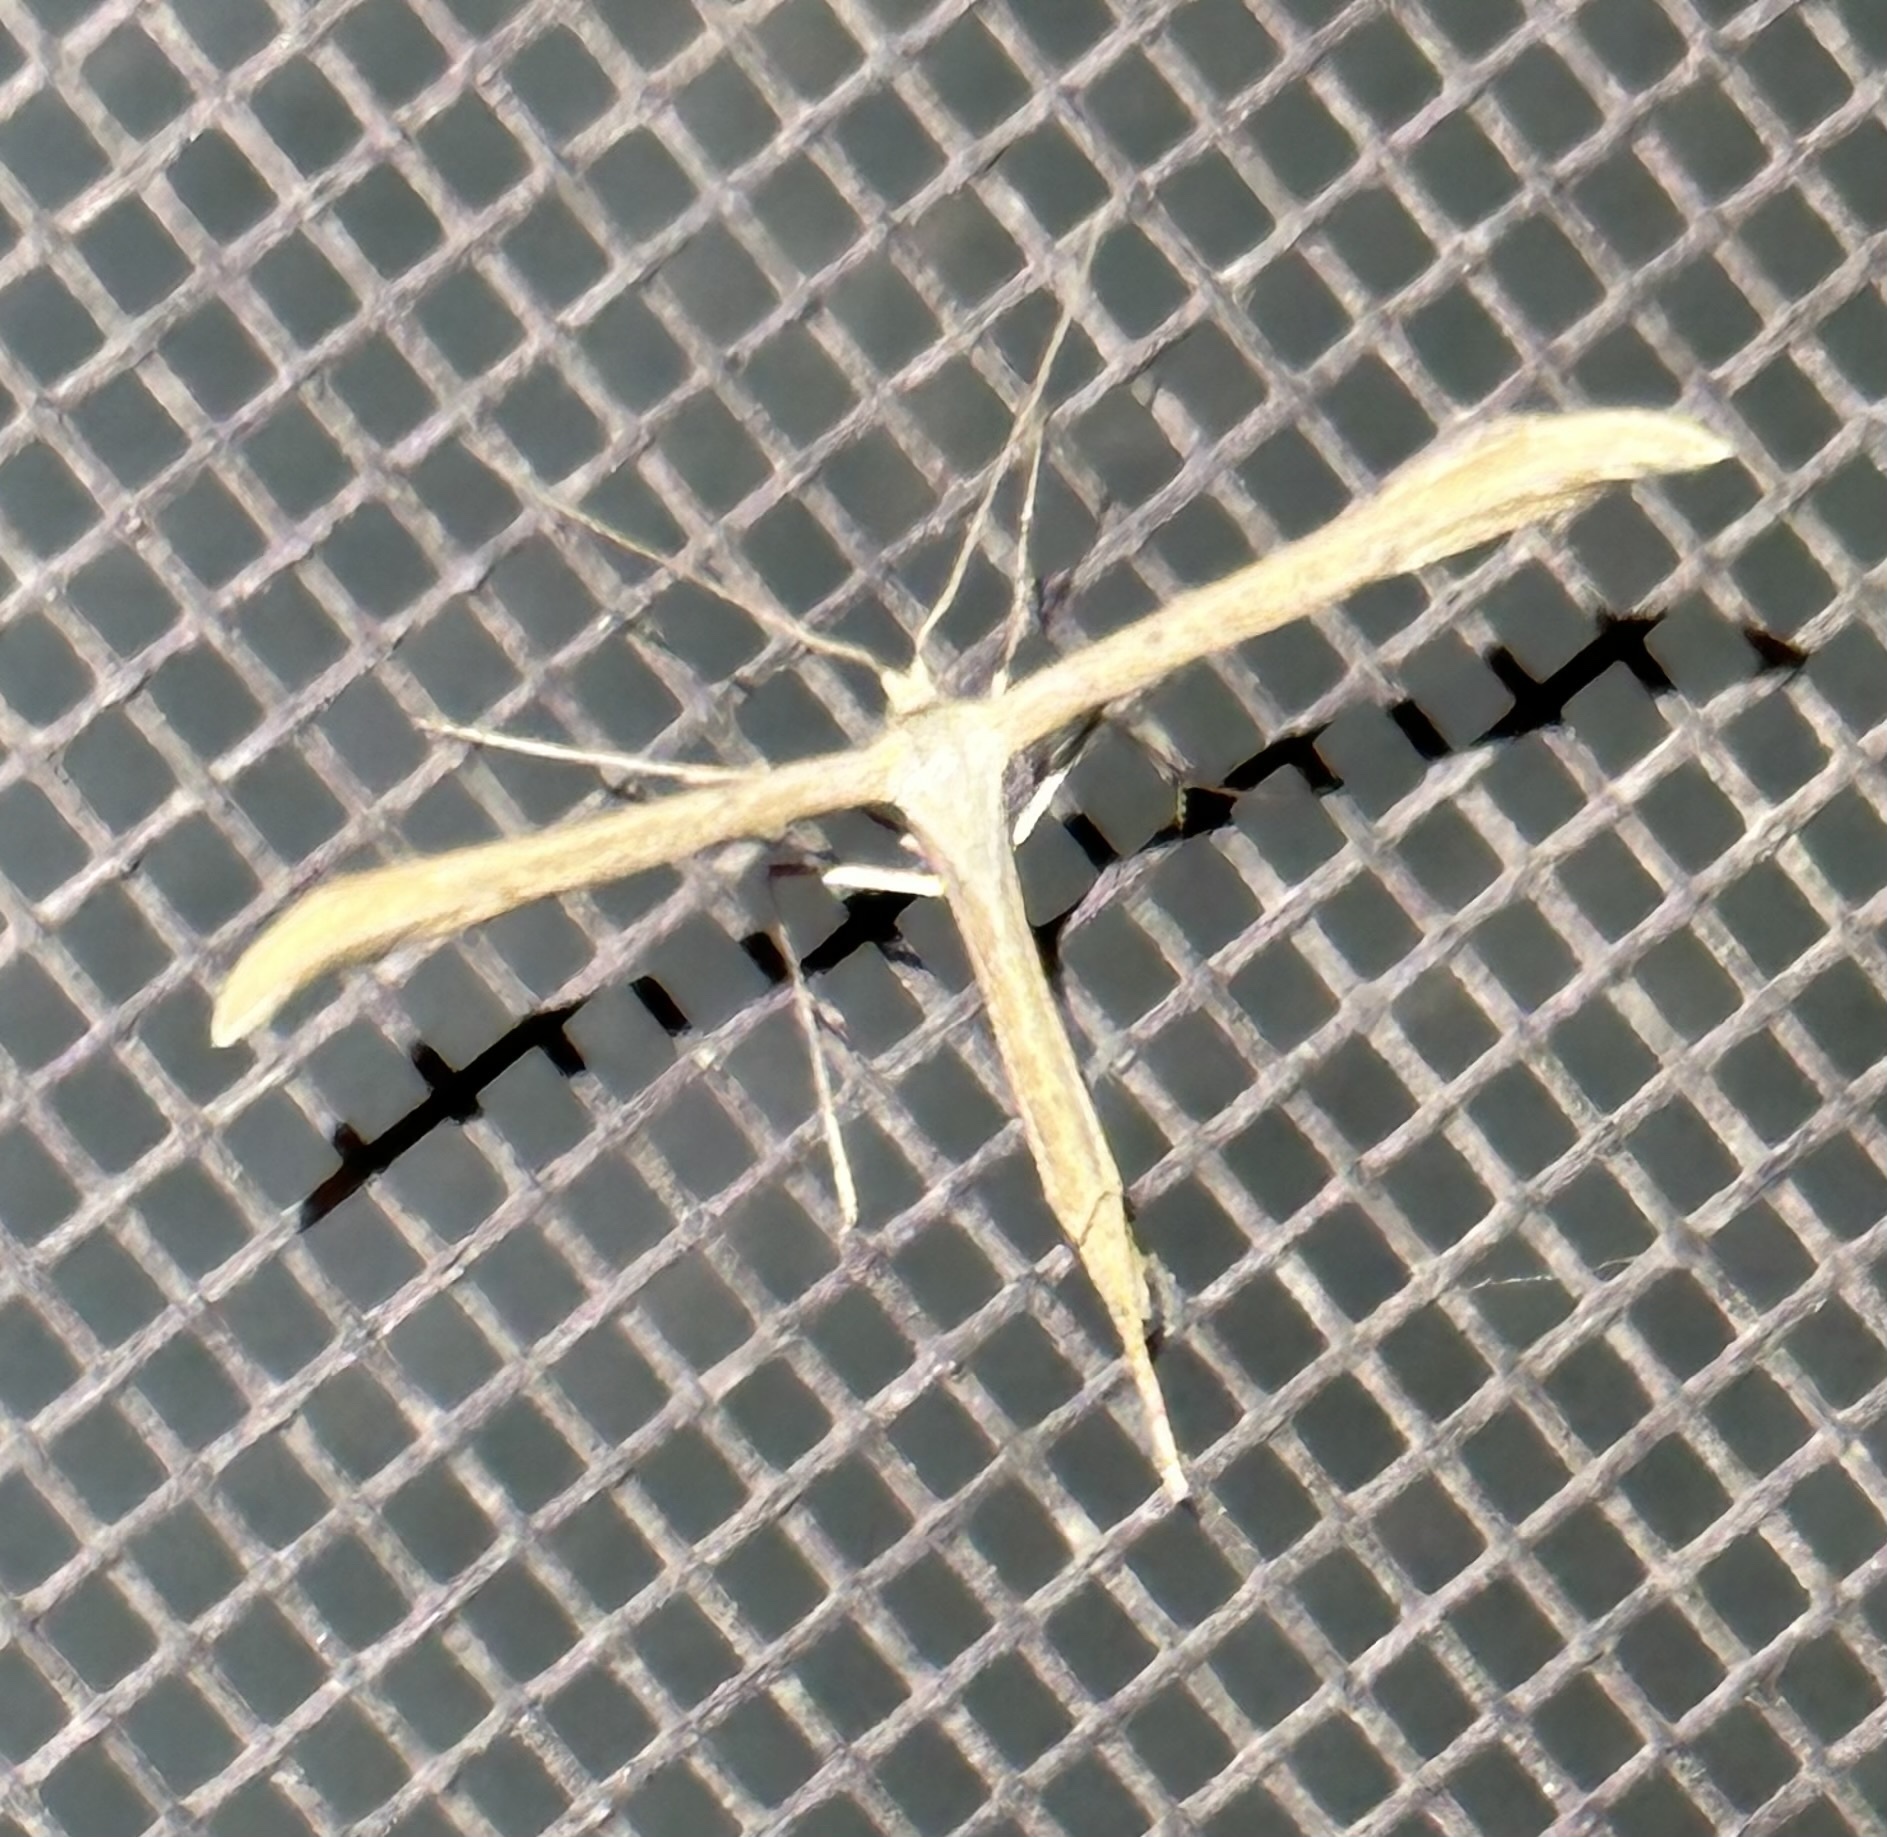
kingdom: Animalia
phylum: Arthropoda
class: Insecta
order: Lepidoptera
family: Pterophoridae
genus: Emmelina
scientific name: Emmelina monodactyla
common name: Common plume
